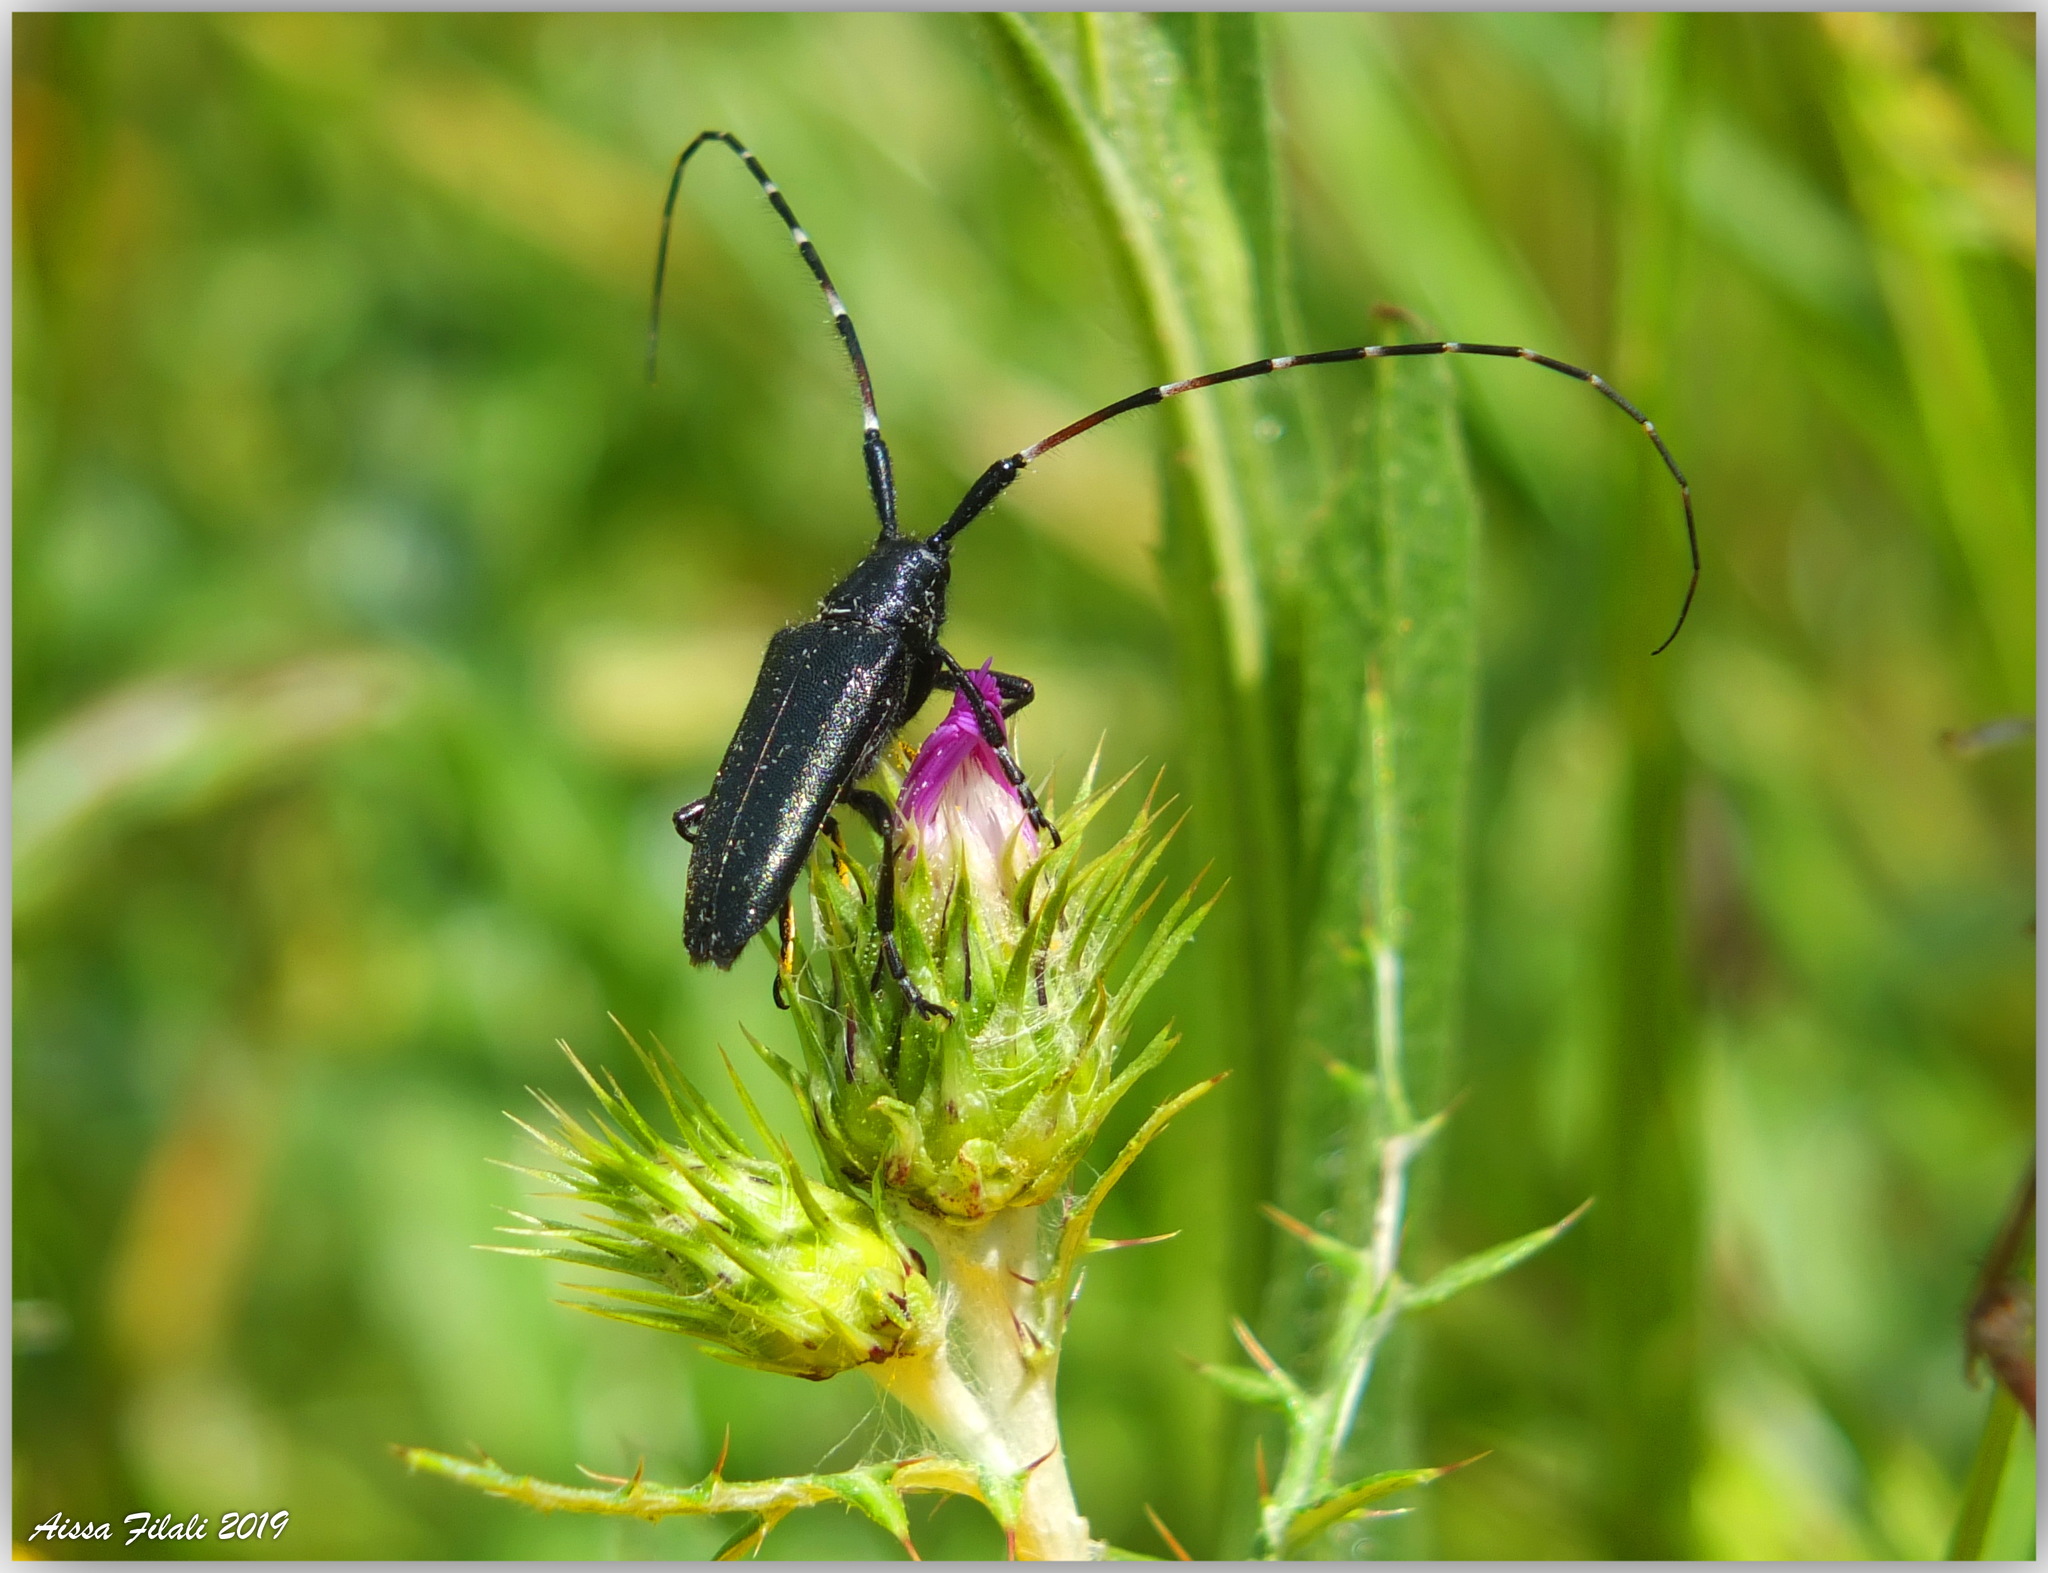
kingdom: Animalia
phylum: Arthropoda
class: Insecta
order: Coleoptera
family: Cerambycidae
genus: Agapanthia
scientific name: Agapanthia irrorata
